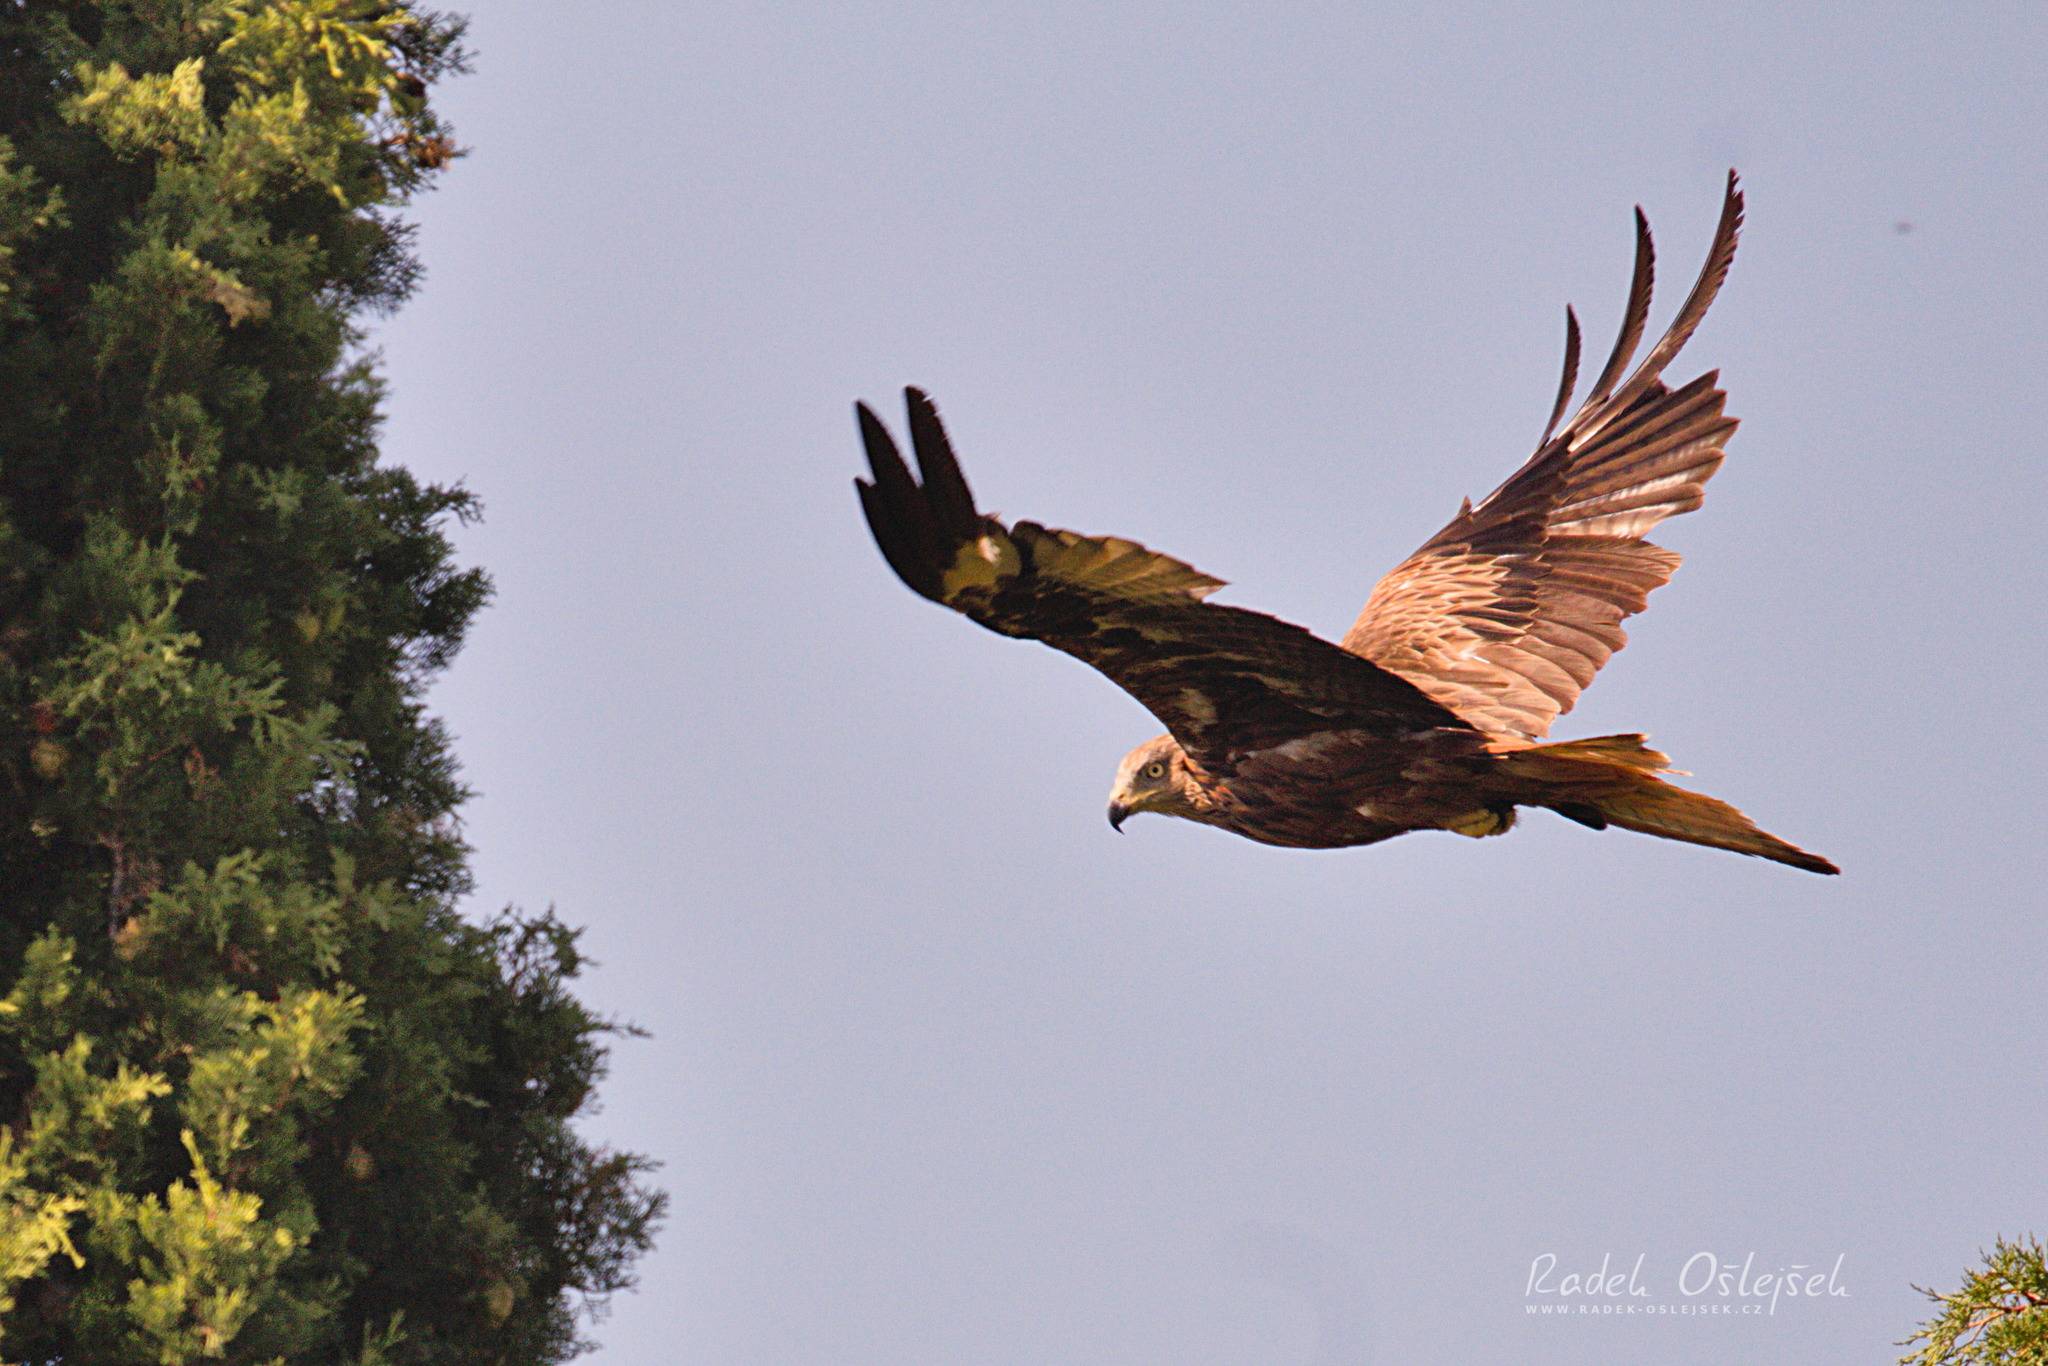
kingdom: Animalia
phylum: Chordata
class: Aves
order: Accipitriformes
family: Accipitridae
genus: Milvus
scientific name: Milvus milvus
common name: Red kite
